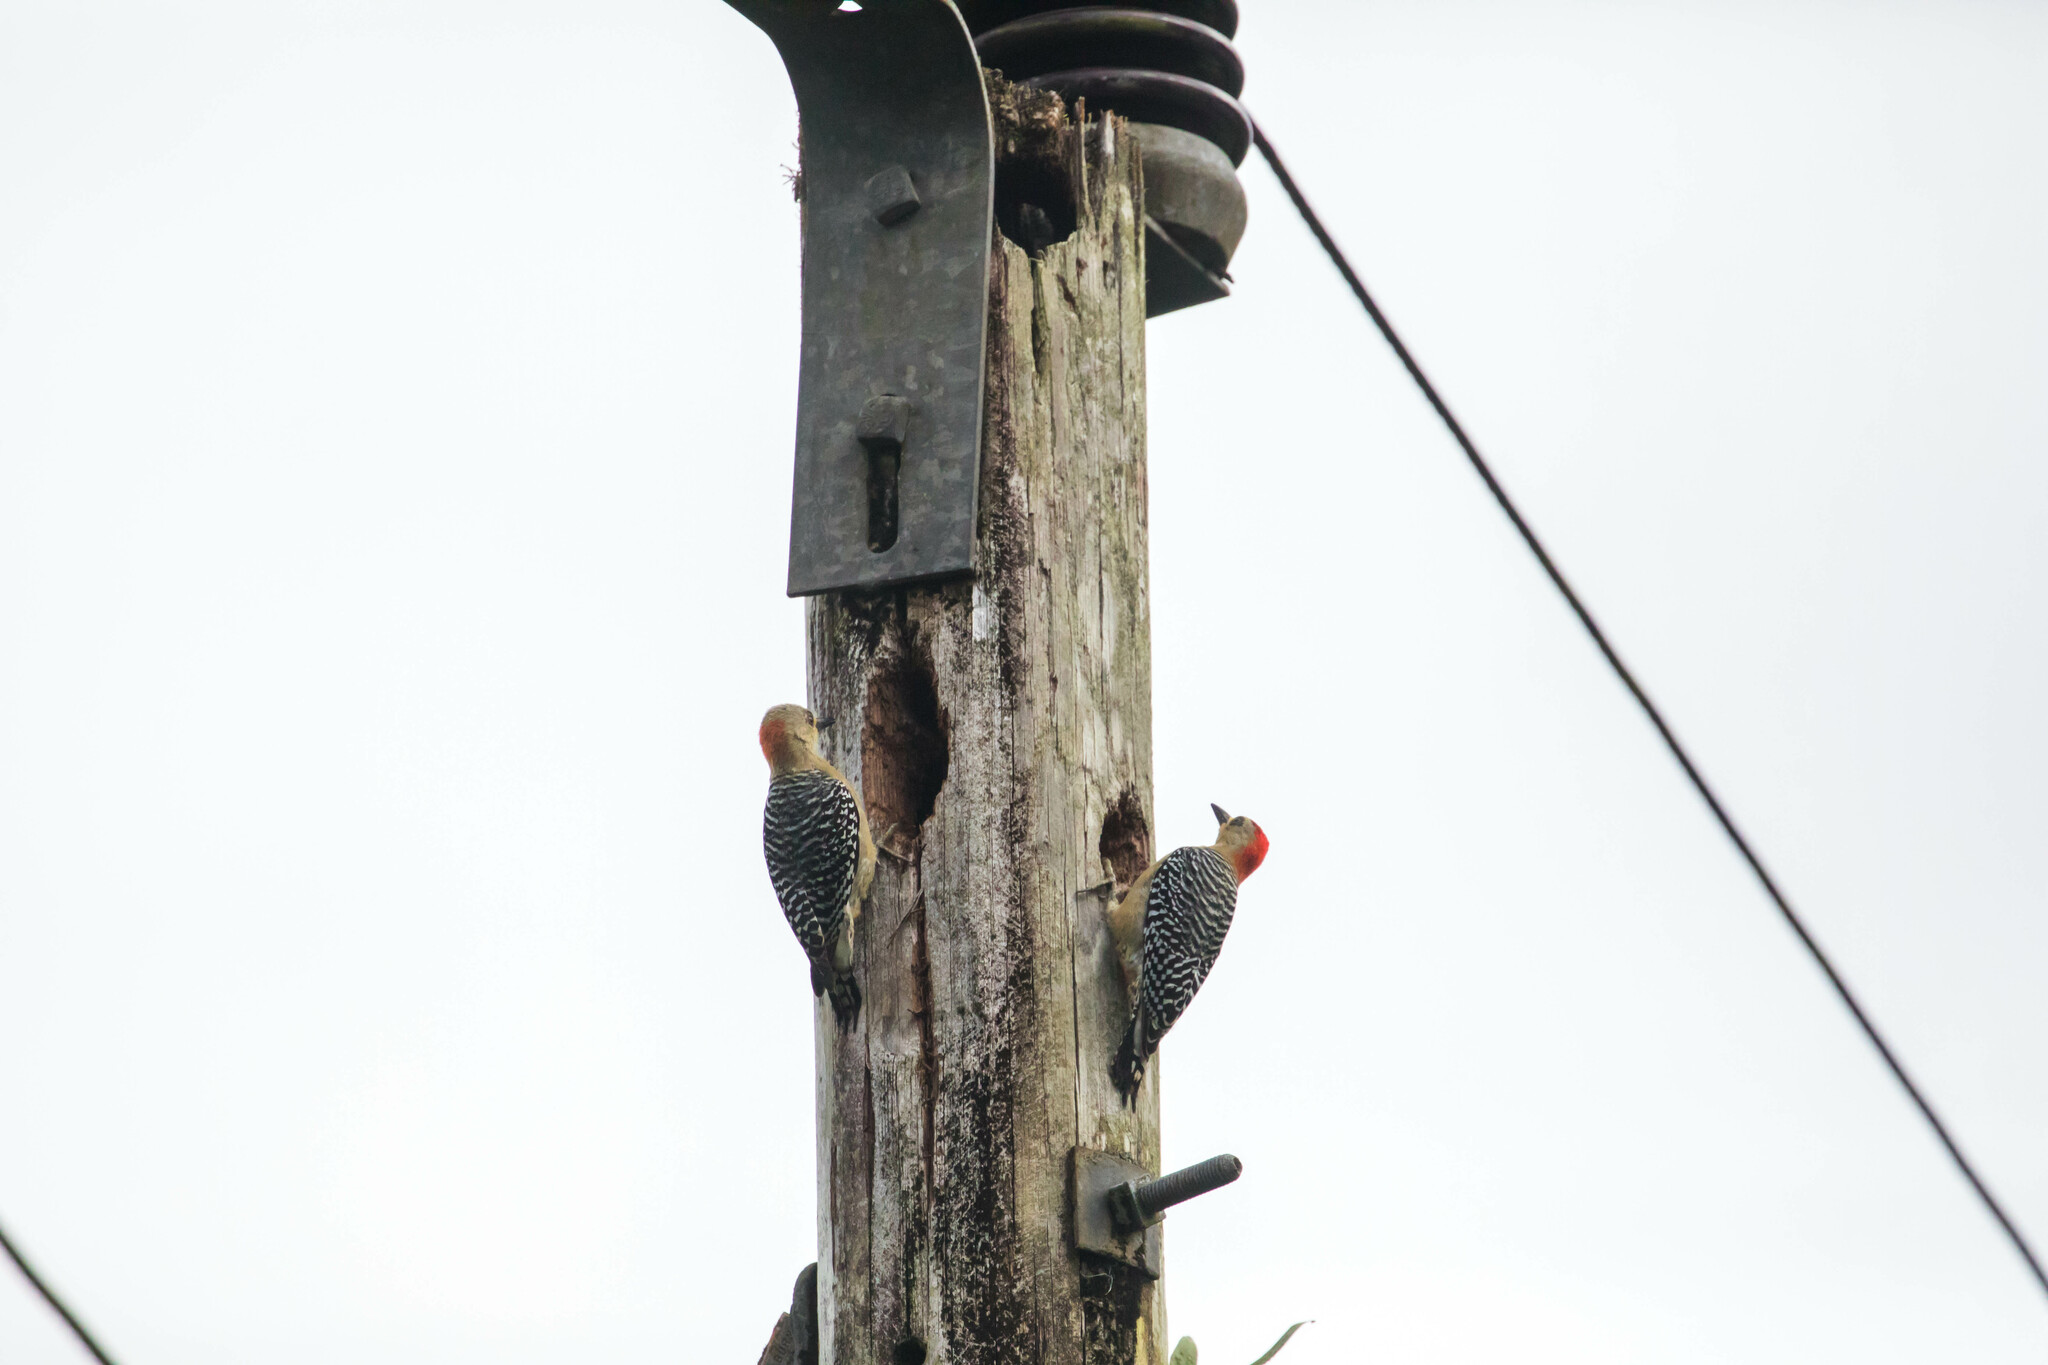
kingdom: Animalia
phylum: Chordata
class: Aves
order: Piciformes
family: Picidae
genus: Melanerpes
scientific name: Melanerpes rubricapillus
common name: Red-crowned woodpecker
